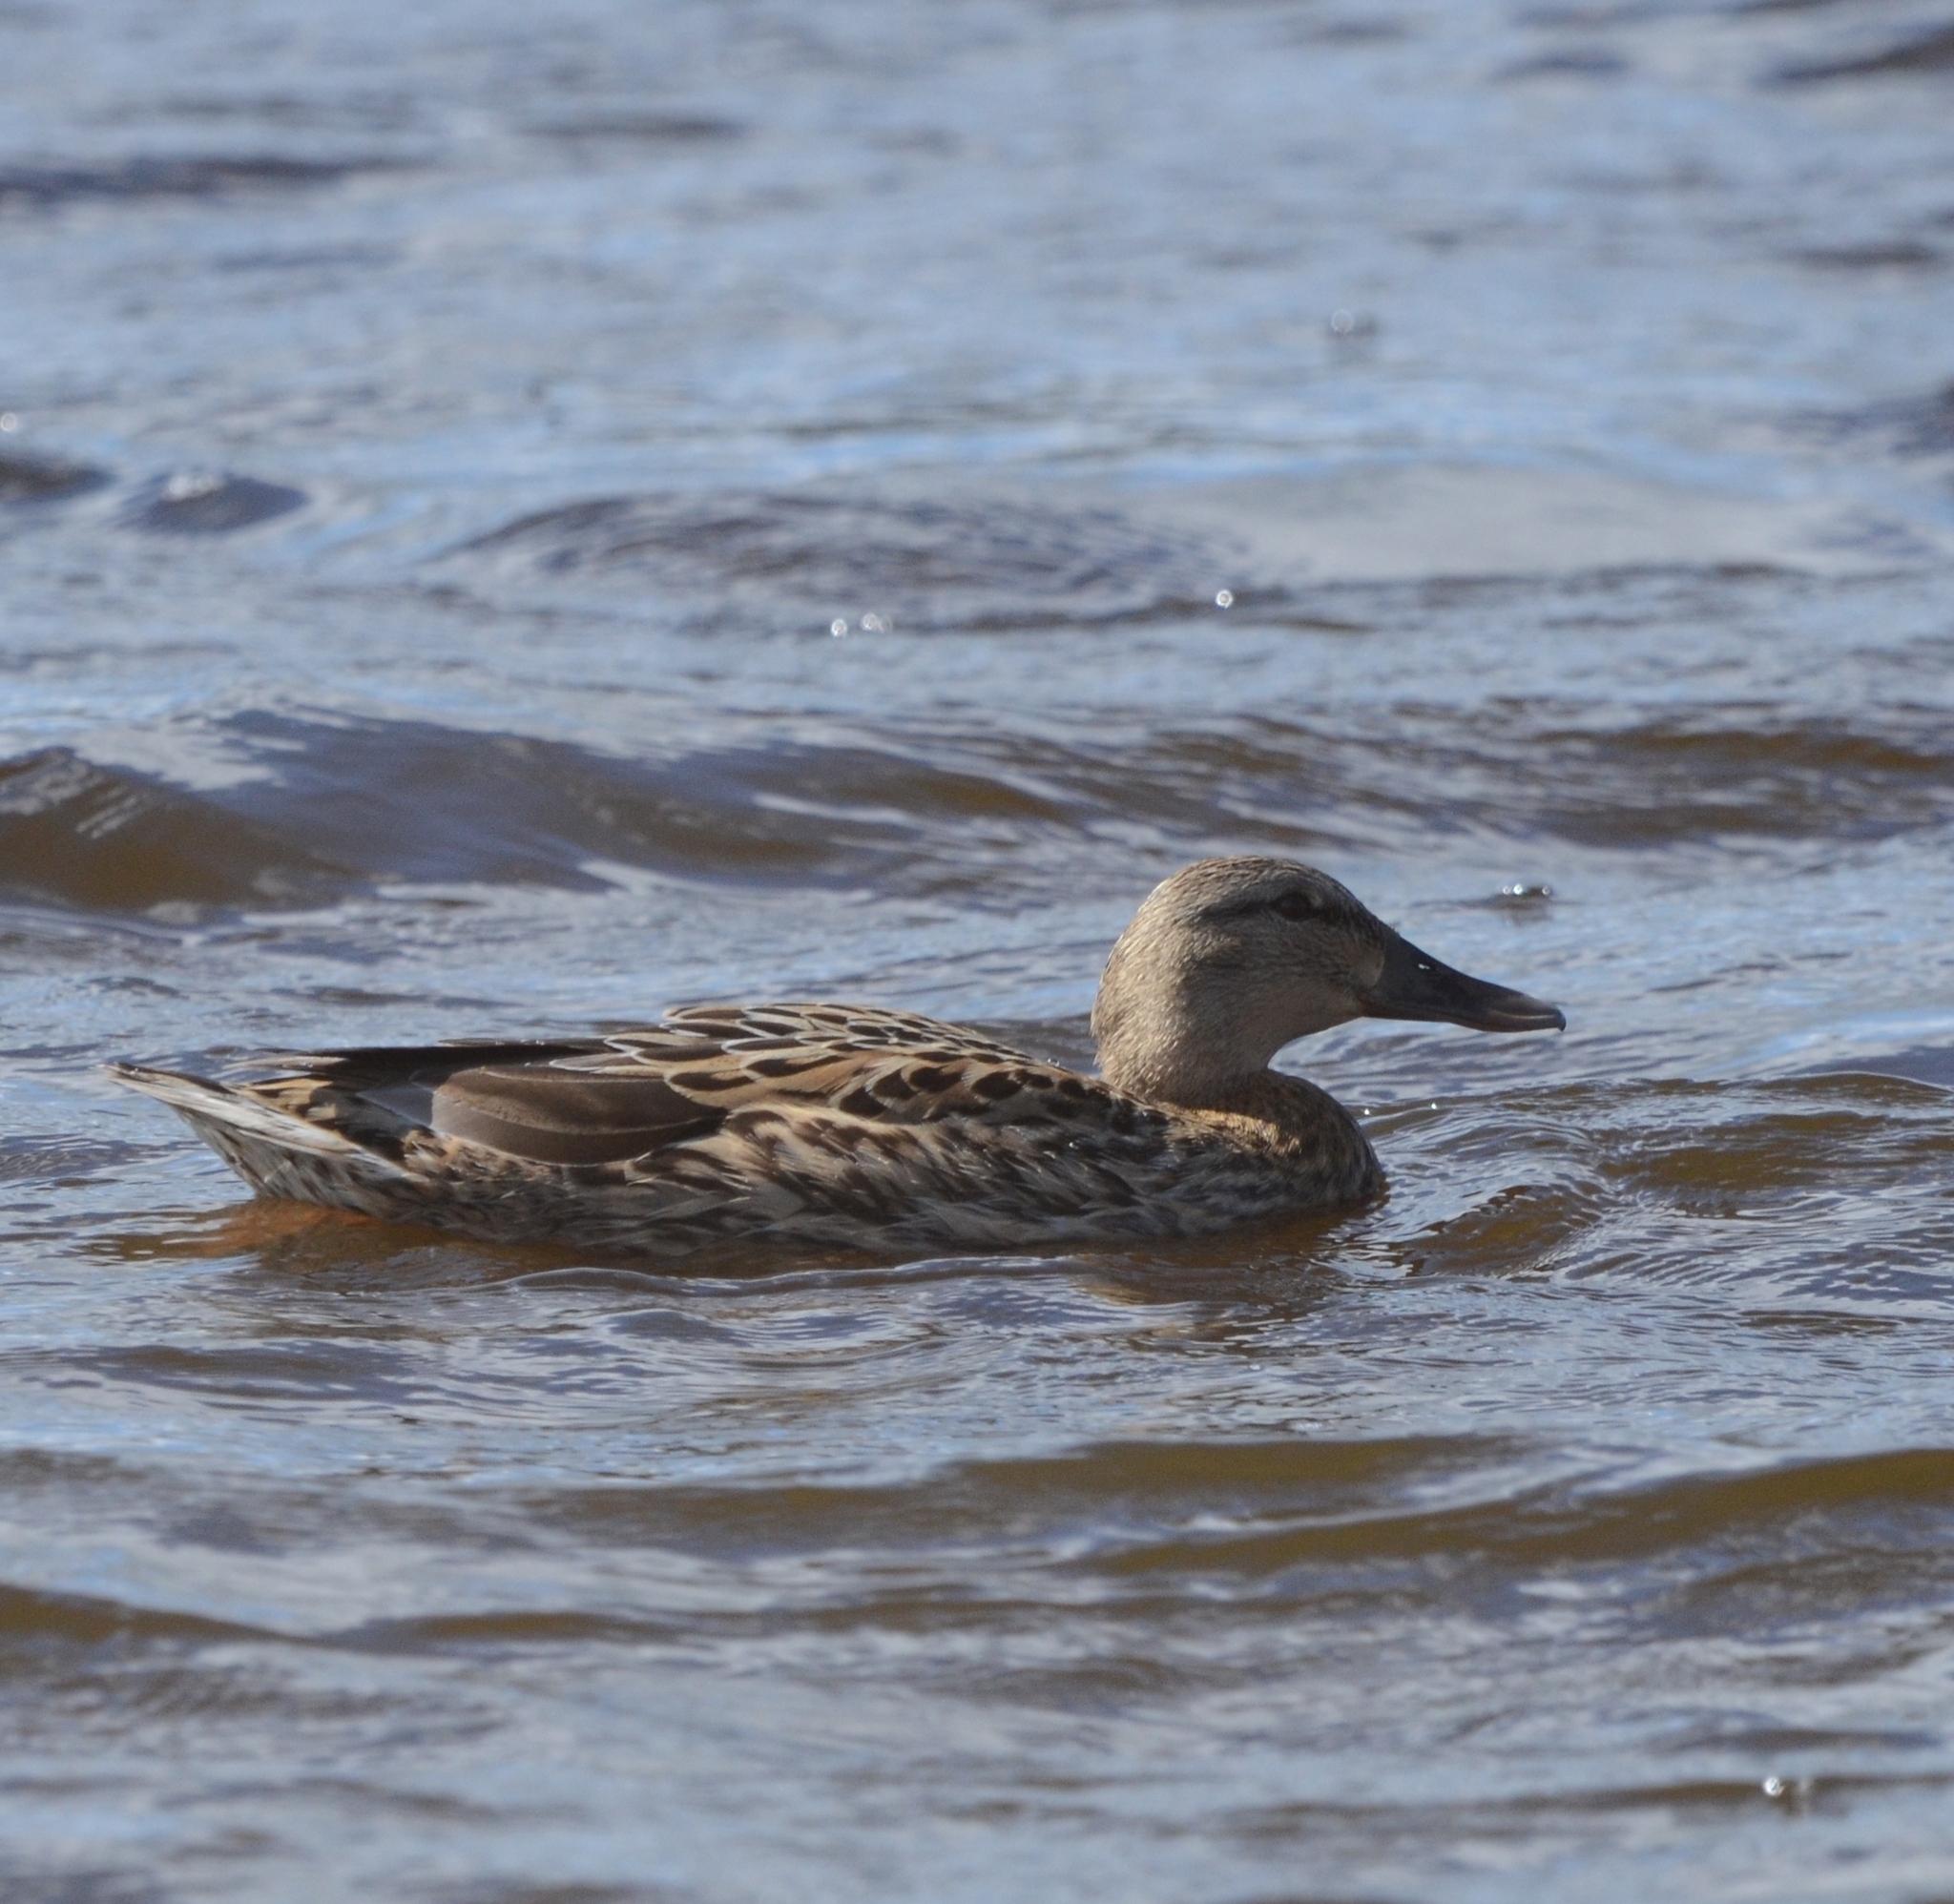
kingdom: Animalia
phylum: Chordata
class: Aves
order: Anseriformes
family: Anatidae
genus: Mareca
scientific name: Mareca strepera
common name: Gadwall
